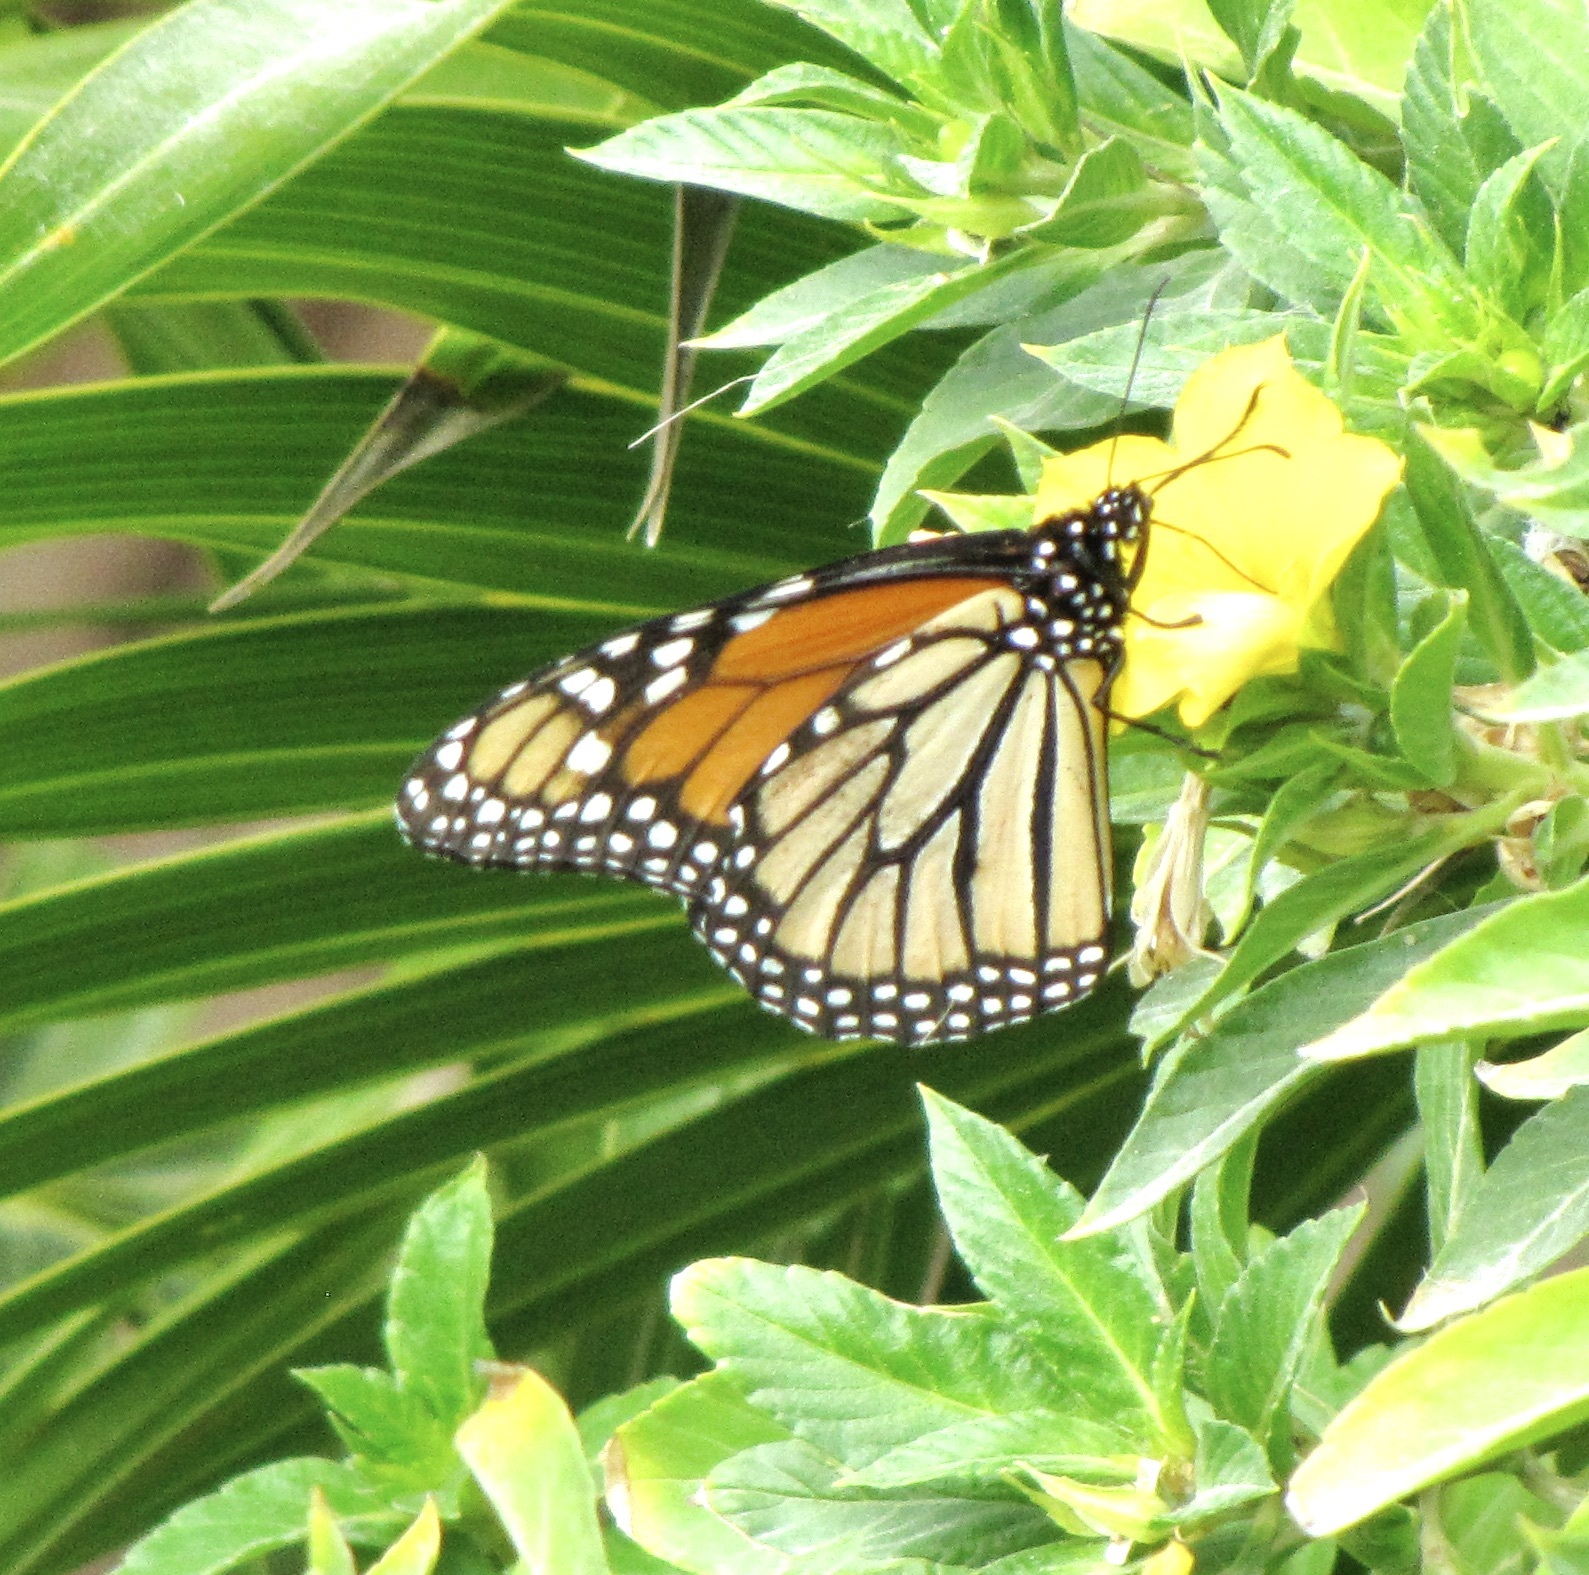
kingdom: Animalia
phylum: Arthropoda
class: Insecta
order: Lepidoptera
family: Nymphalidae
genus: Danaus
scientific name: Danaus plexippus
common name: Monarch
